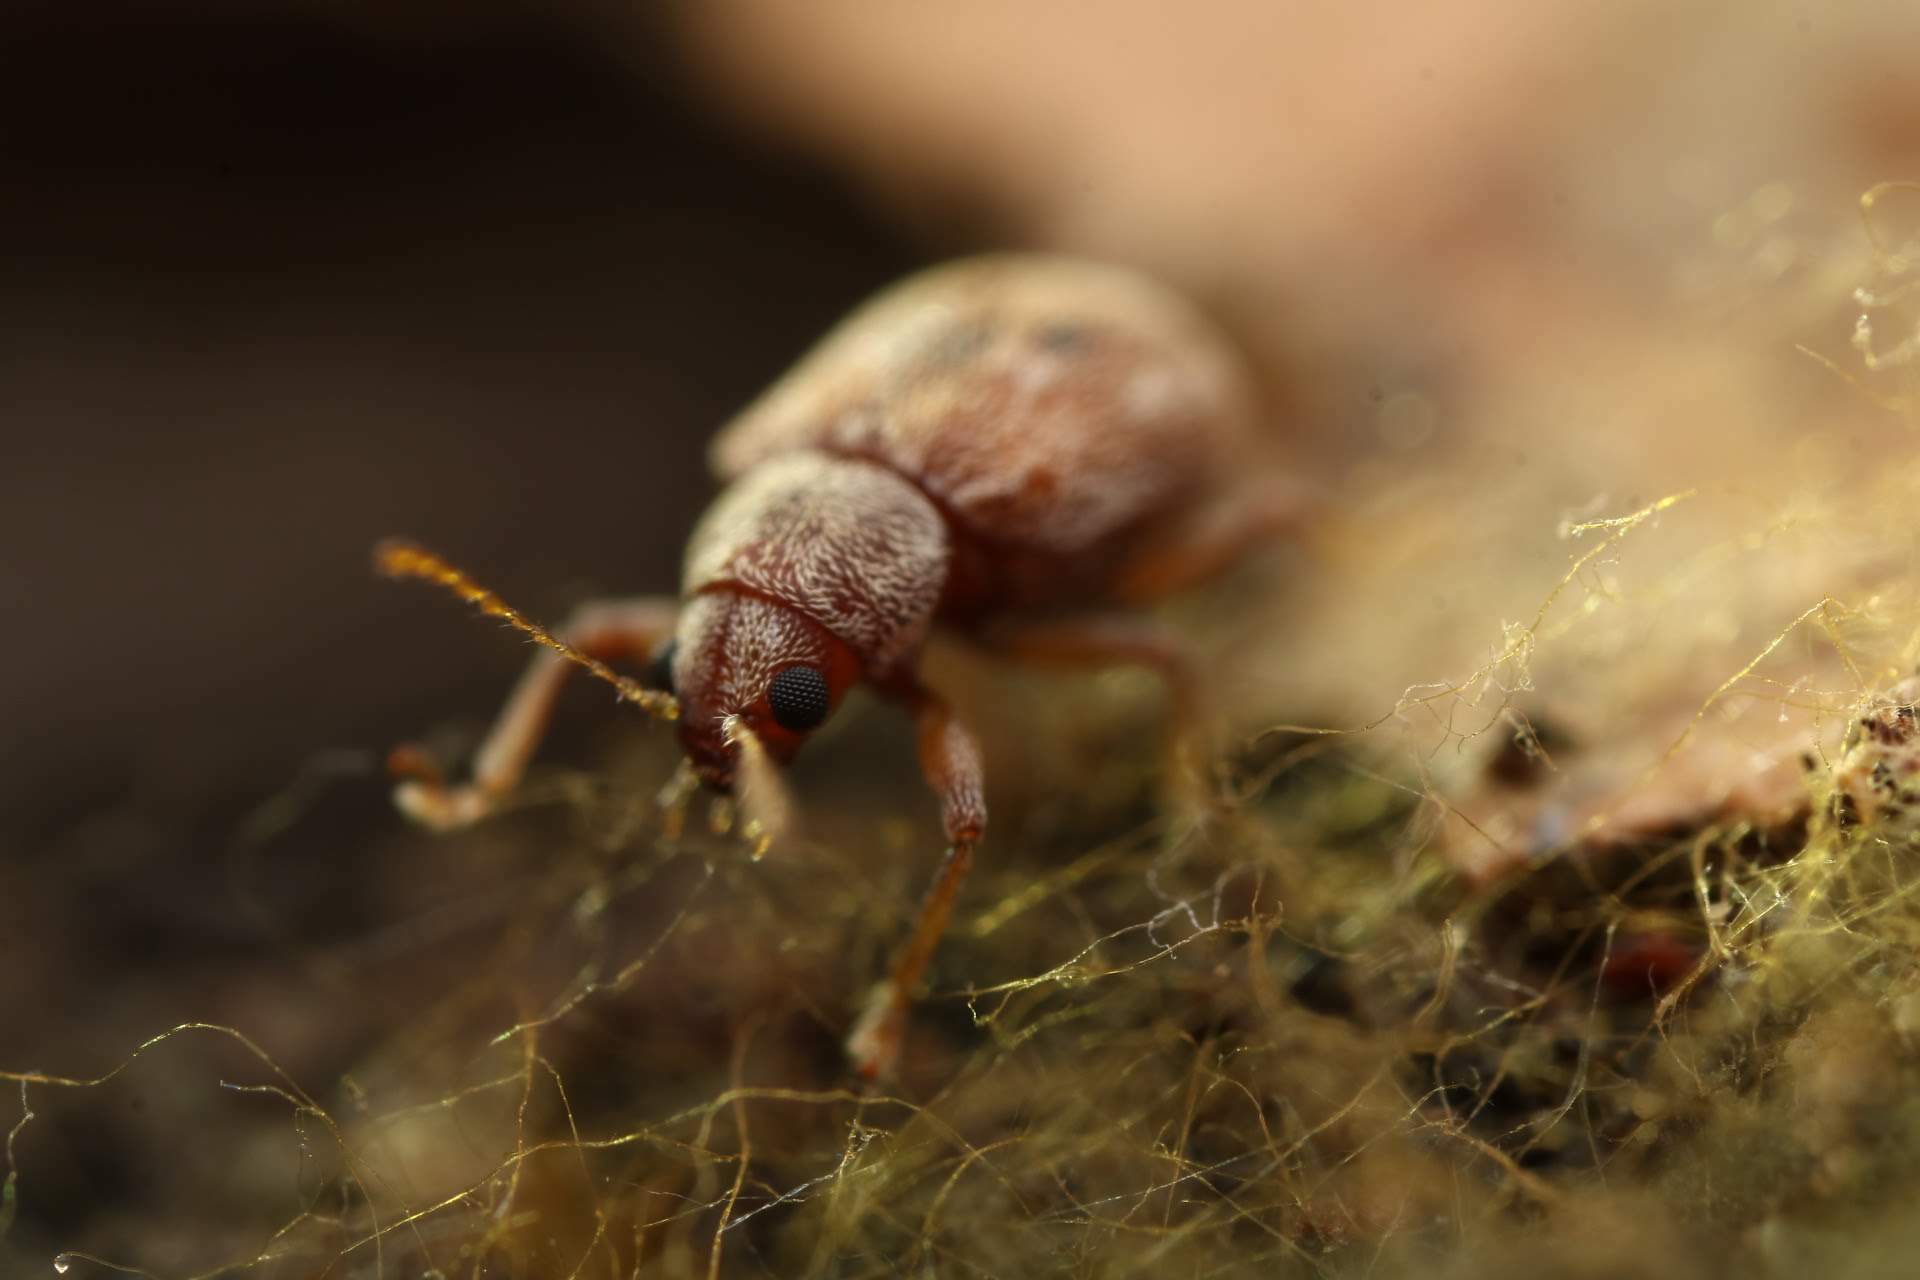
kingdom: Animalia
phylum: Arthropoda
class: Insecta
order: Coleoptera
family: Chrysomelidae
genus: Demotina
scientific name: Demotina modesta
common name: Leaf beetle
